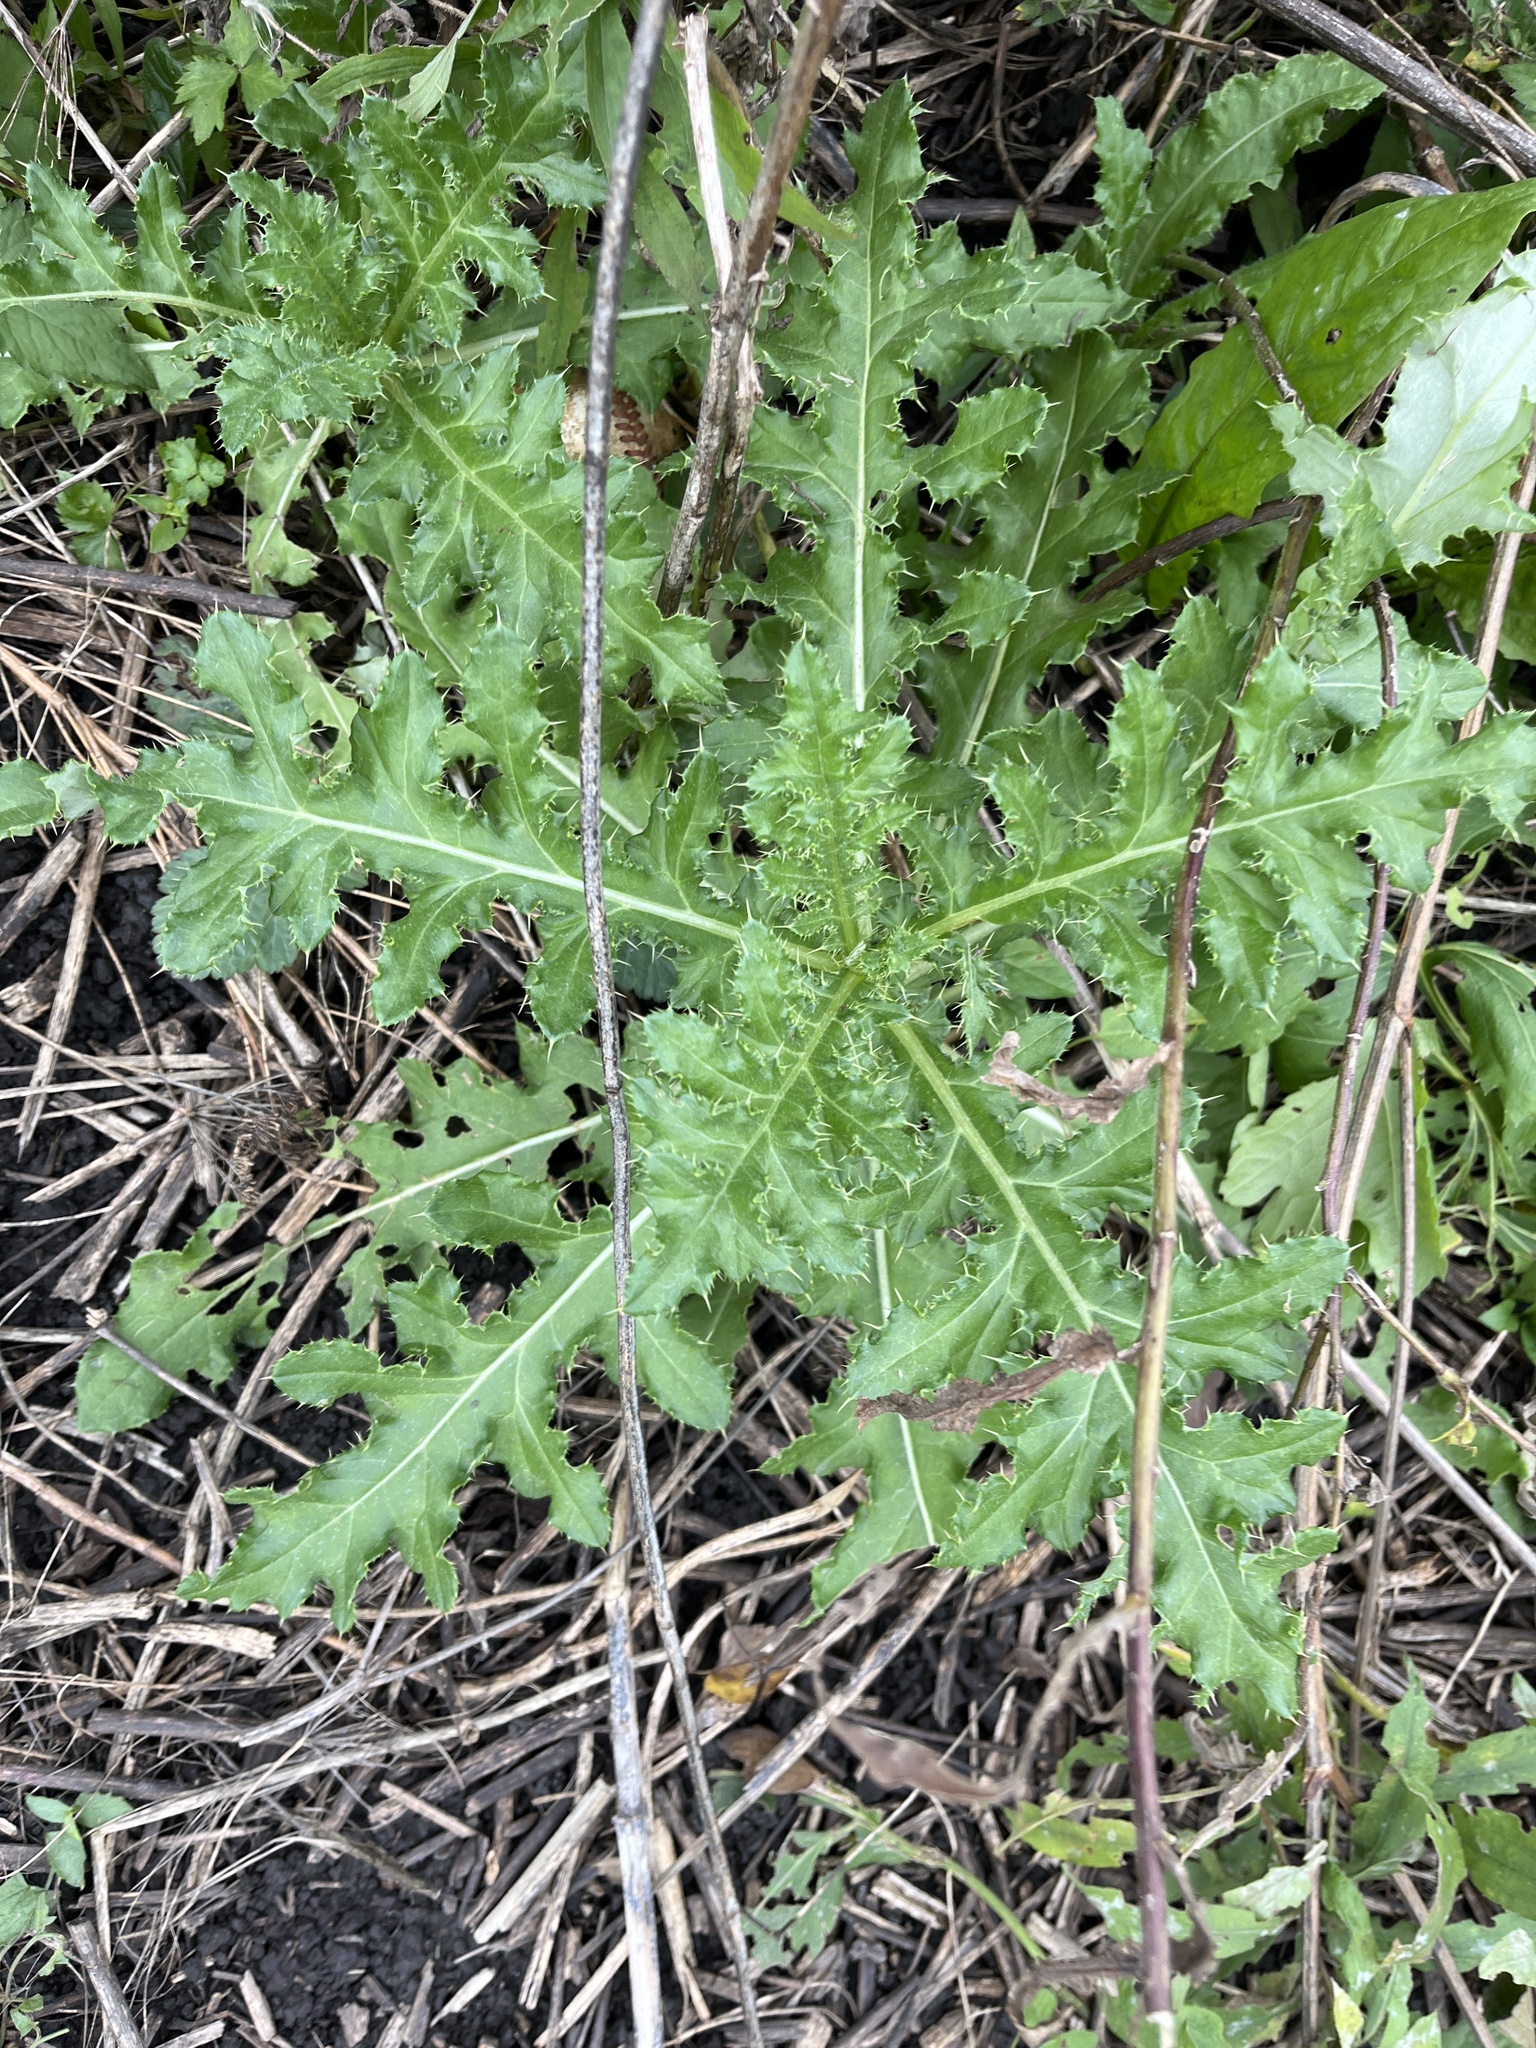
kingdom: Plantae
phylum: Tracheophyta
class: Magnoliopsida
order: Asterales
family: Asteraceae
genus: Cirsium
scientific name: Cirsium arvense
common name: Creeping thistle
